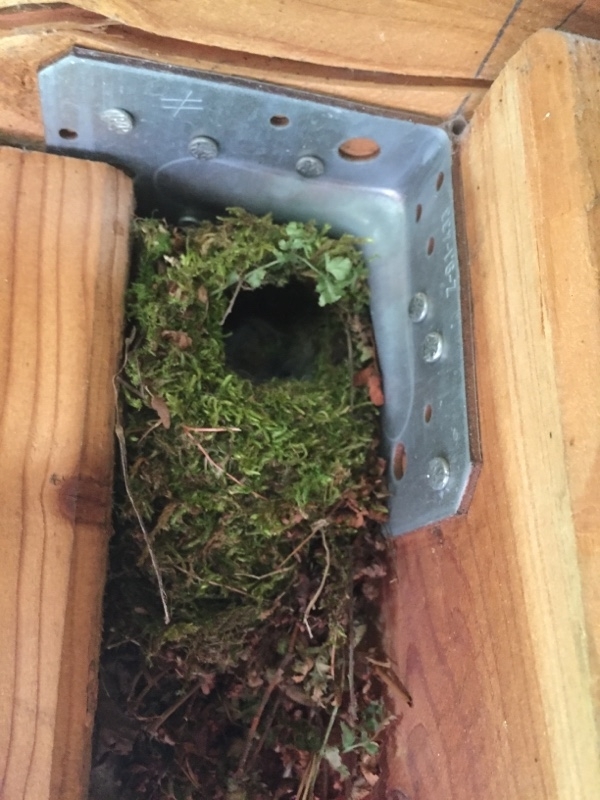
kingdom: Animalia
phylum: Chordata
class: Aves
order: Passeriformes
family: Troglodytidae
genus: Troglodytes
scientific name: Troglodytes troglodytes
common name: Eurasian wren
